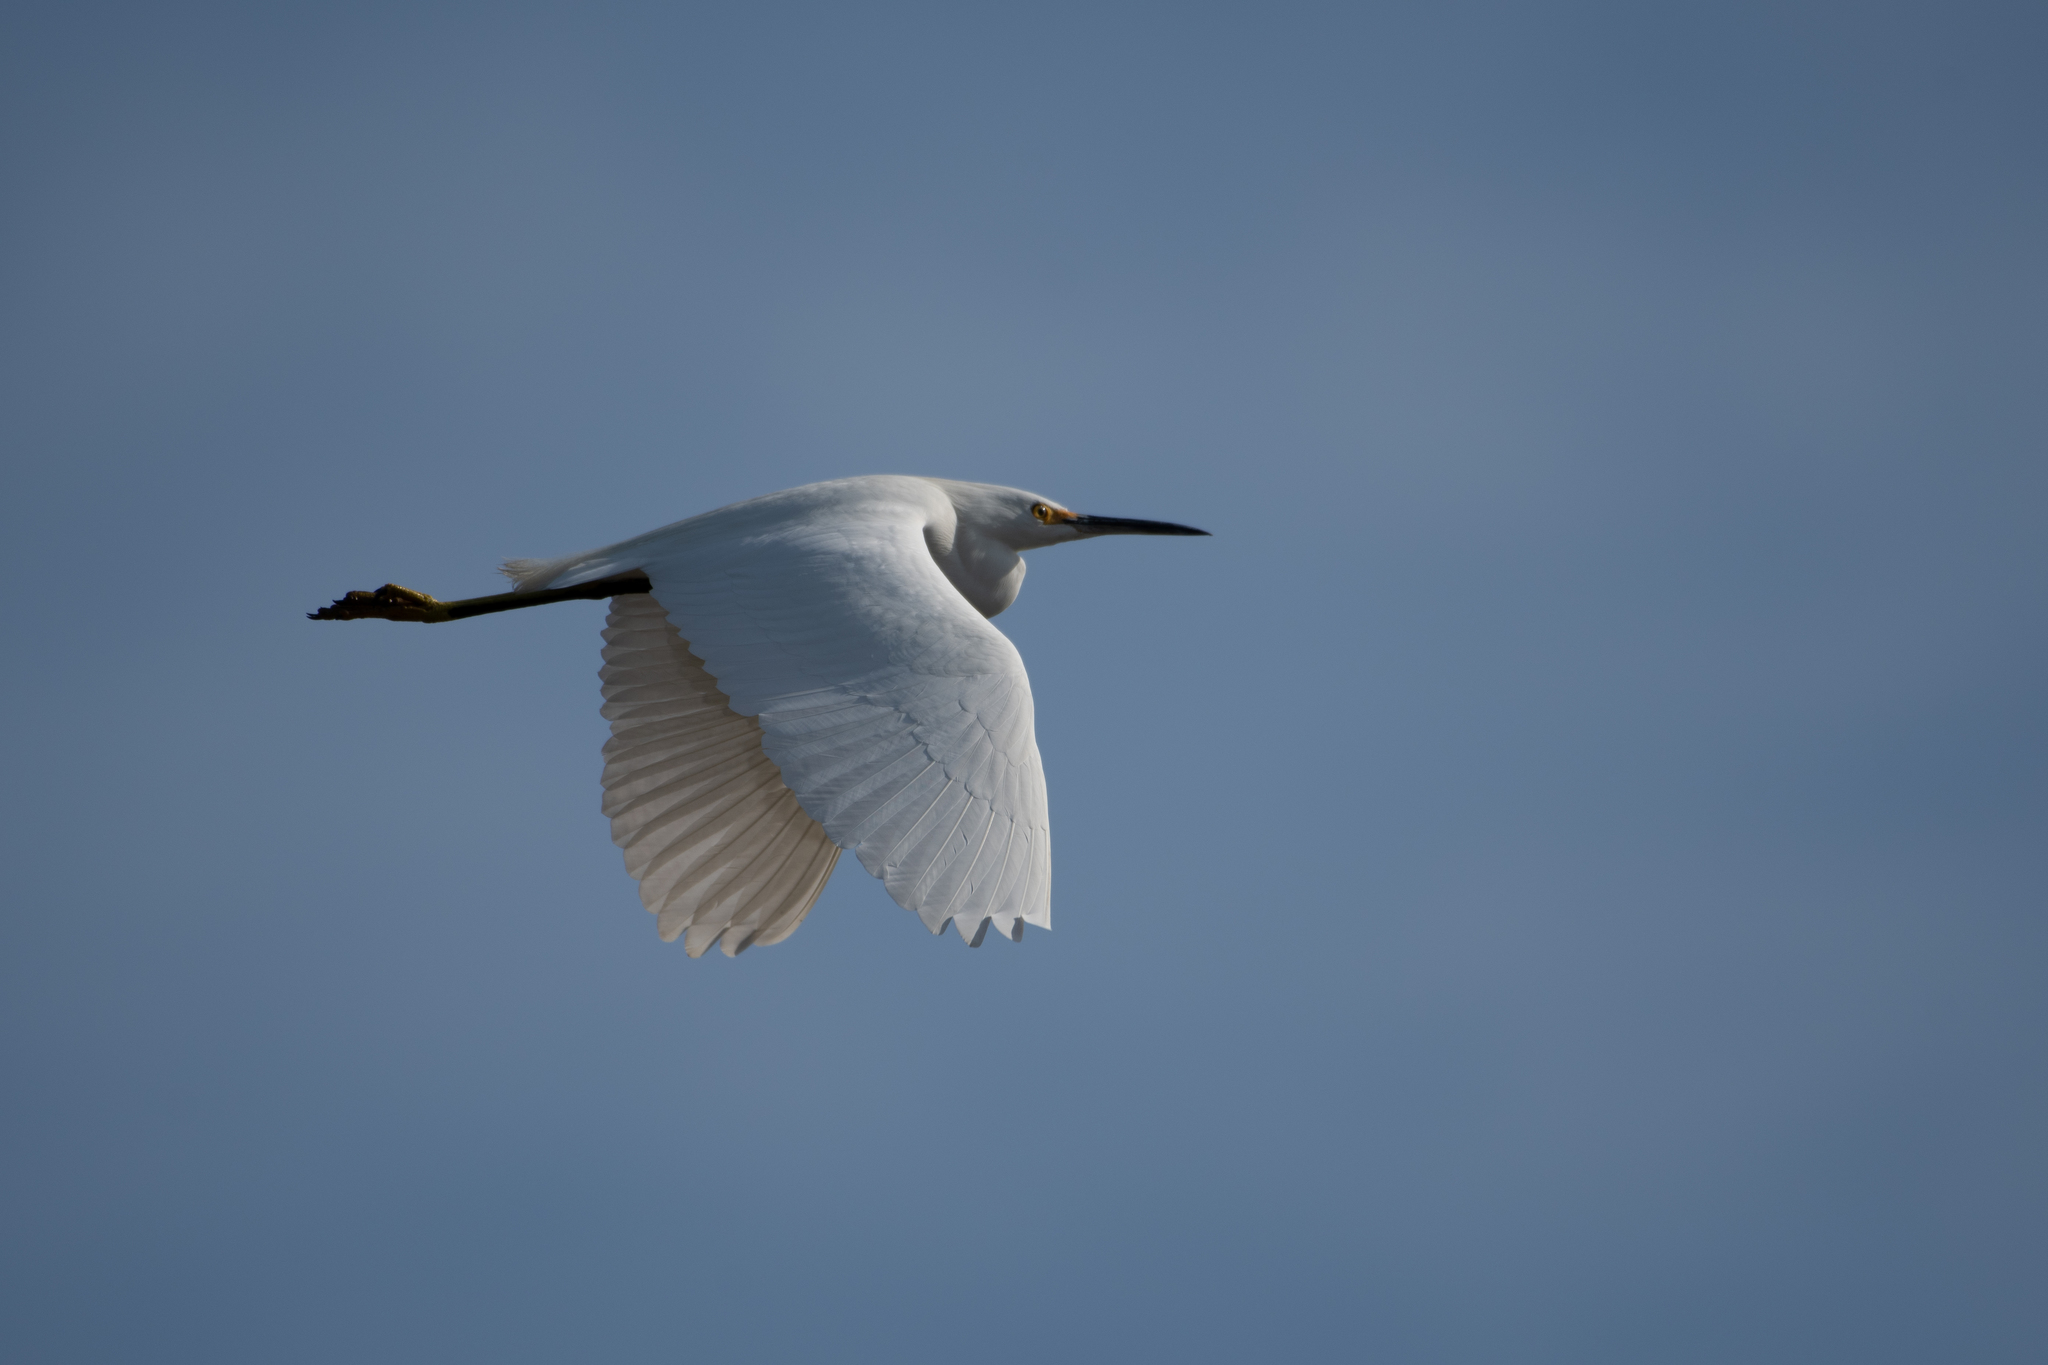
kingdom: Animalia
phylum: Chordata
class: Aves
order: Pelecaniformes
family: Ardeidae
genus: Egretta
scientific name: Egretta thula
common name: Snowy egret
